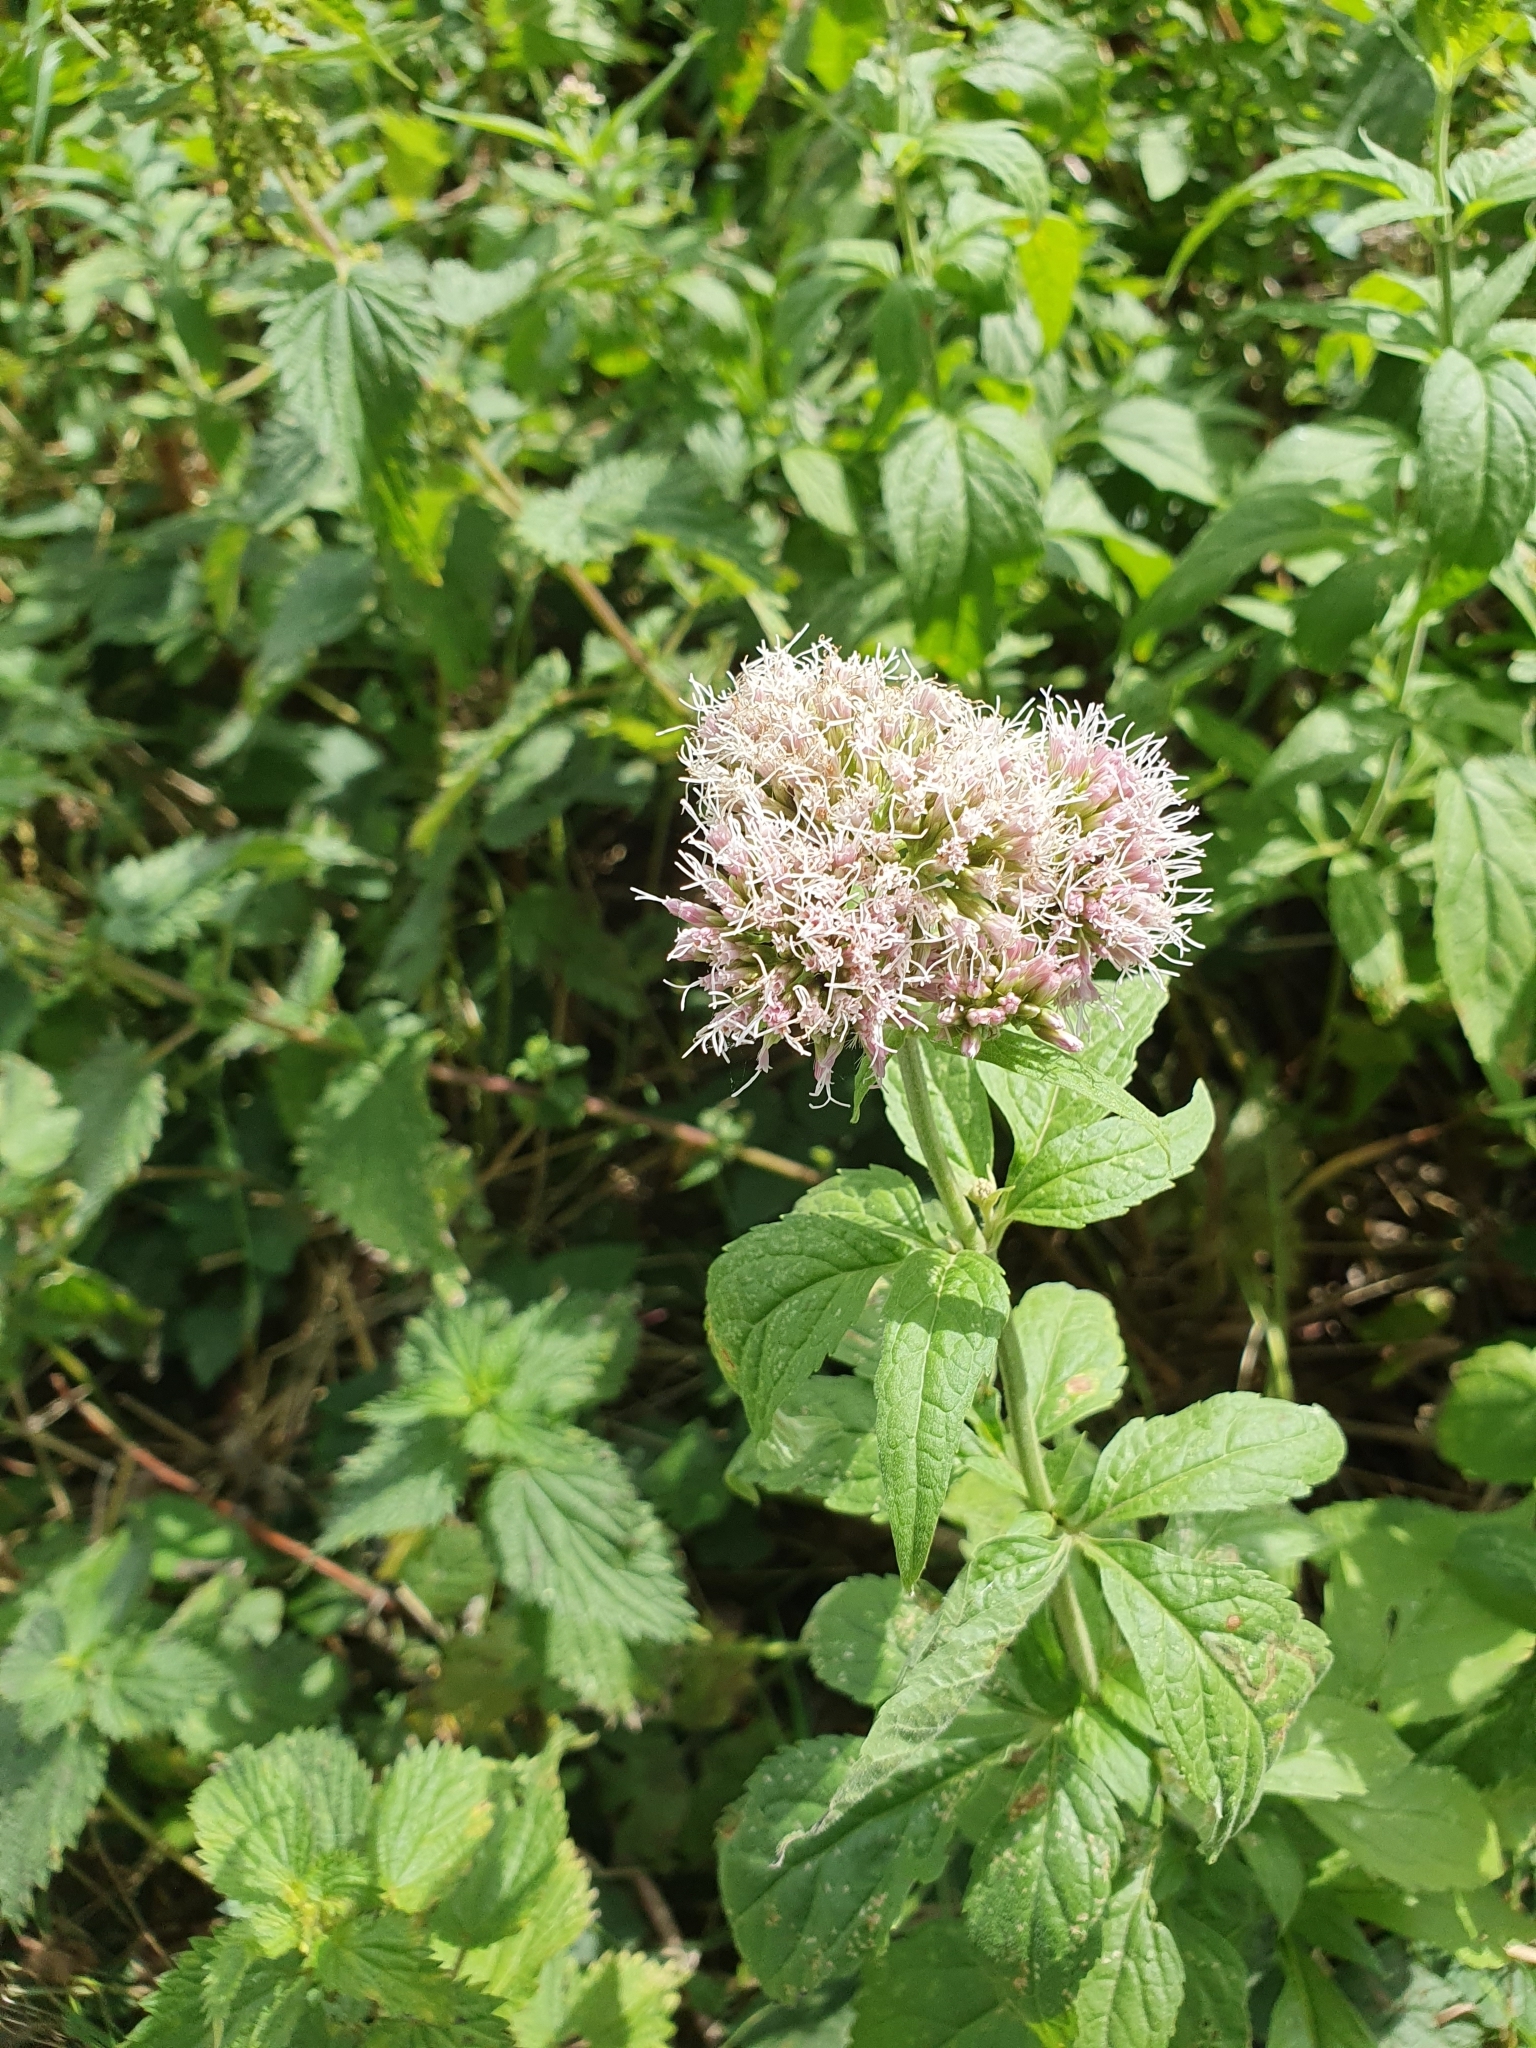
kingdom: Plantae
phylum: Tracheophyta
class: Magnoliopsida
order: Asterales
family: Asteraceae
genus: Eupatorium
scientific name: Eupatorium cannabinum
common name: Hemp-agrimony
